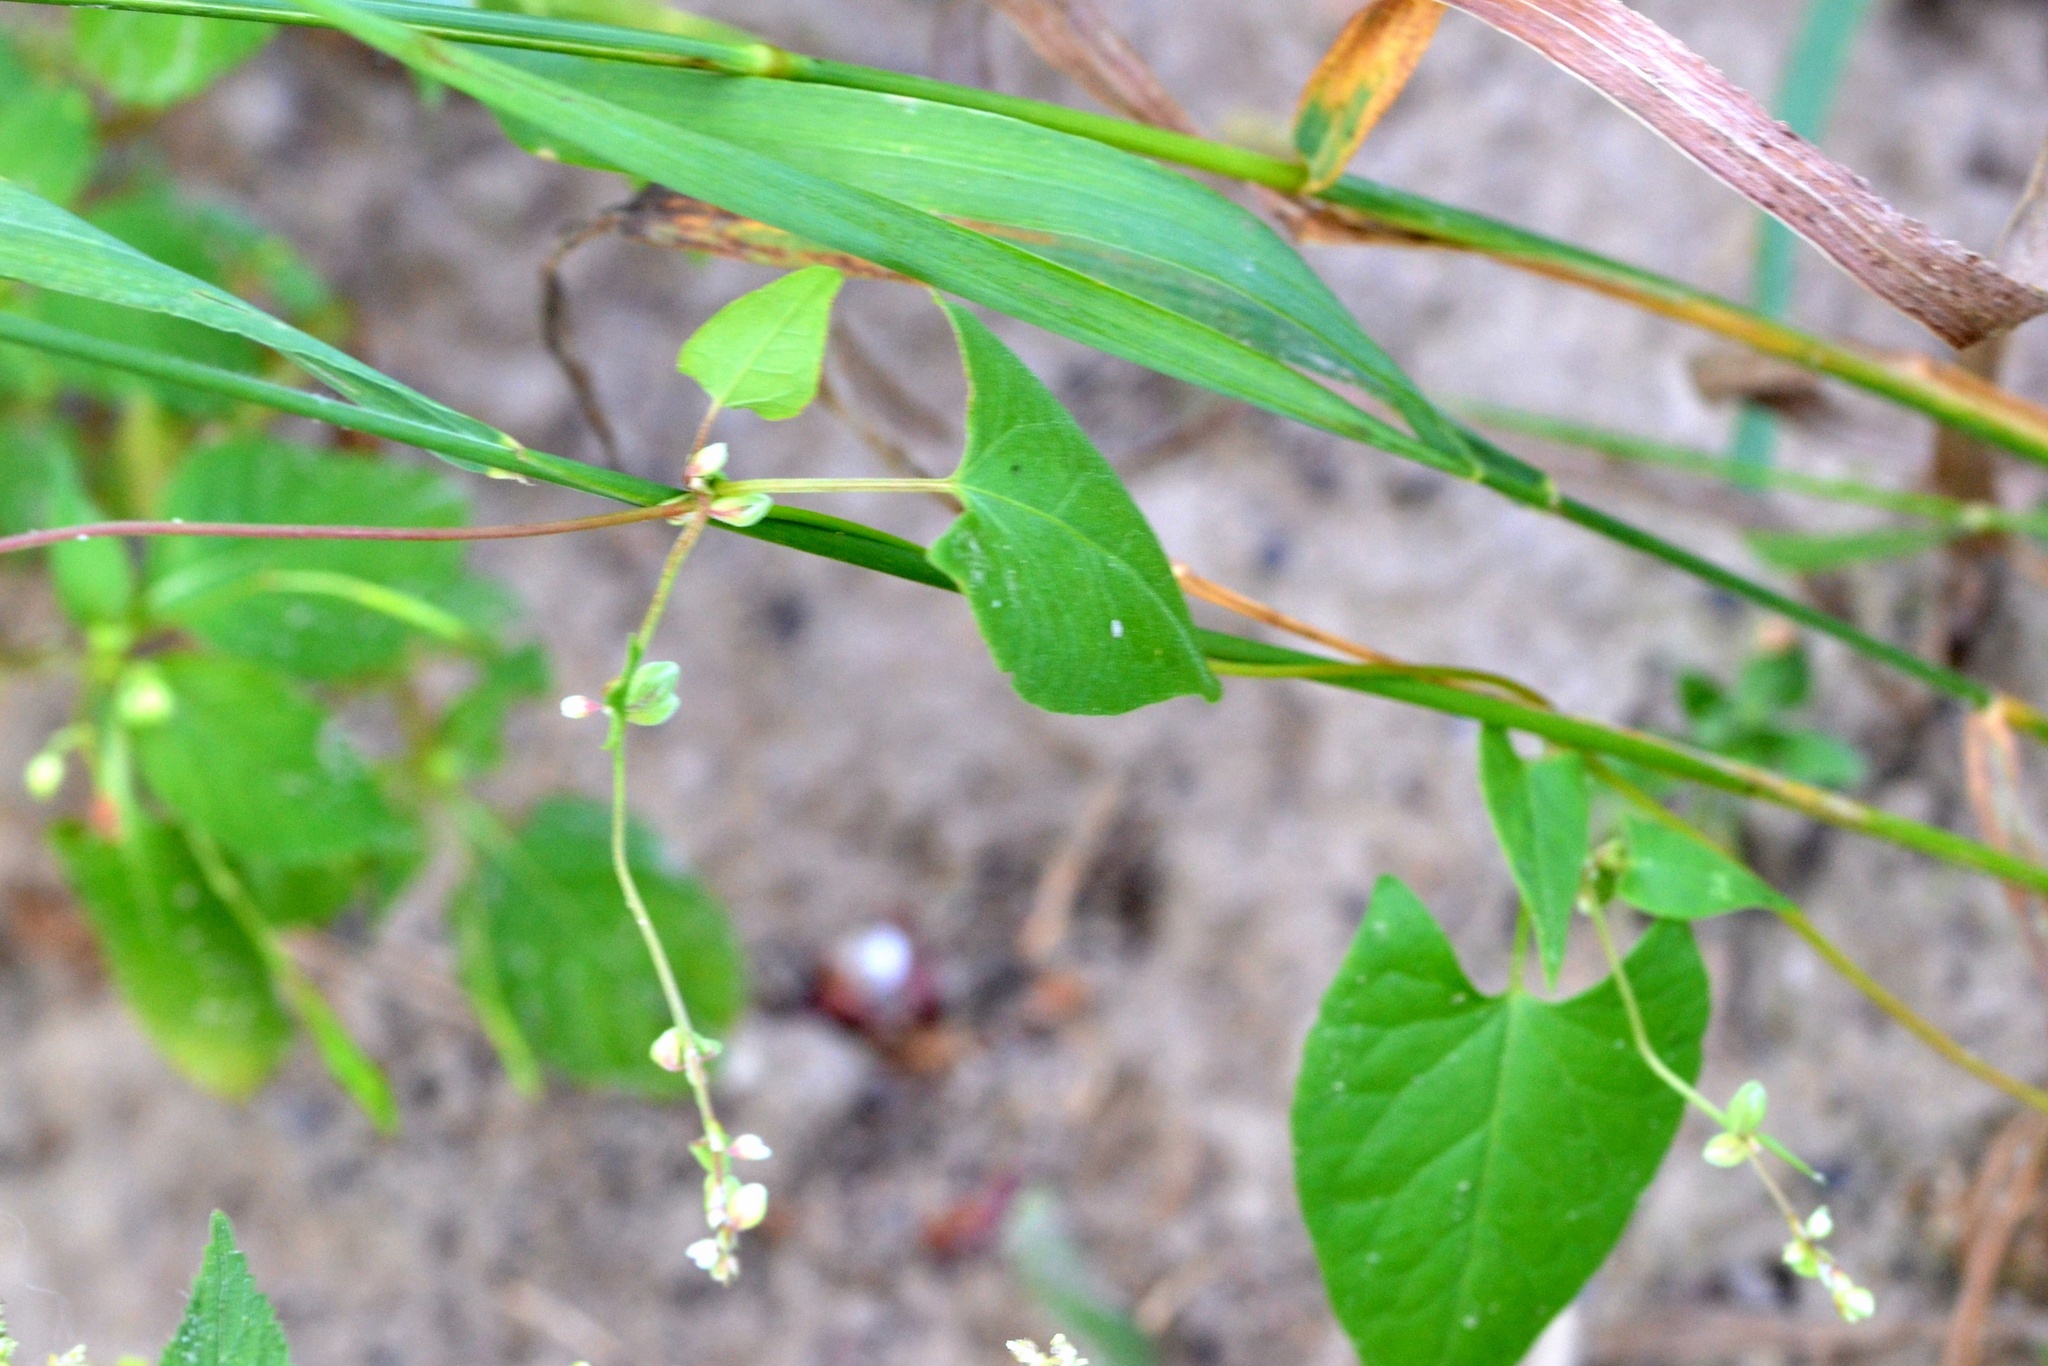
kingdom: Plantae
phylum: Tracheophyta
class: Magnoliopsida
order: Caryophyllales
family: Polygonaceae
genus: Fallopia
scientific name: Fallopia convolvulus
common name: Black bindweed
